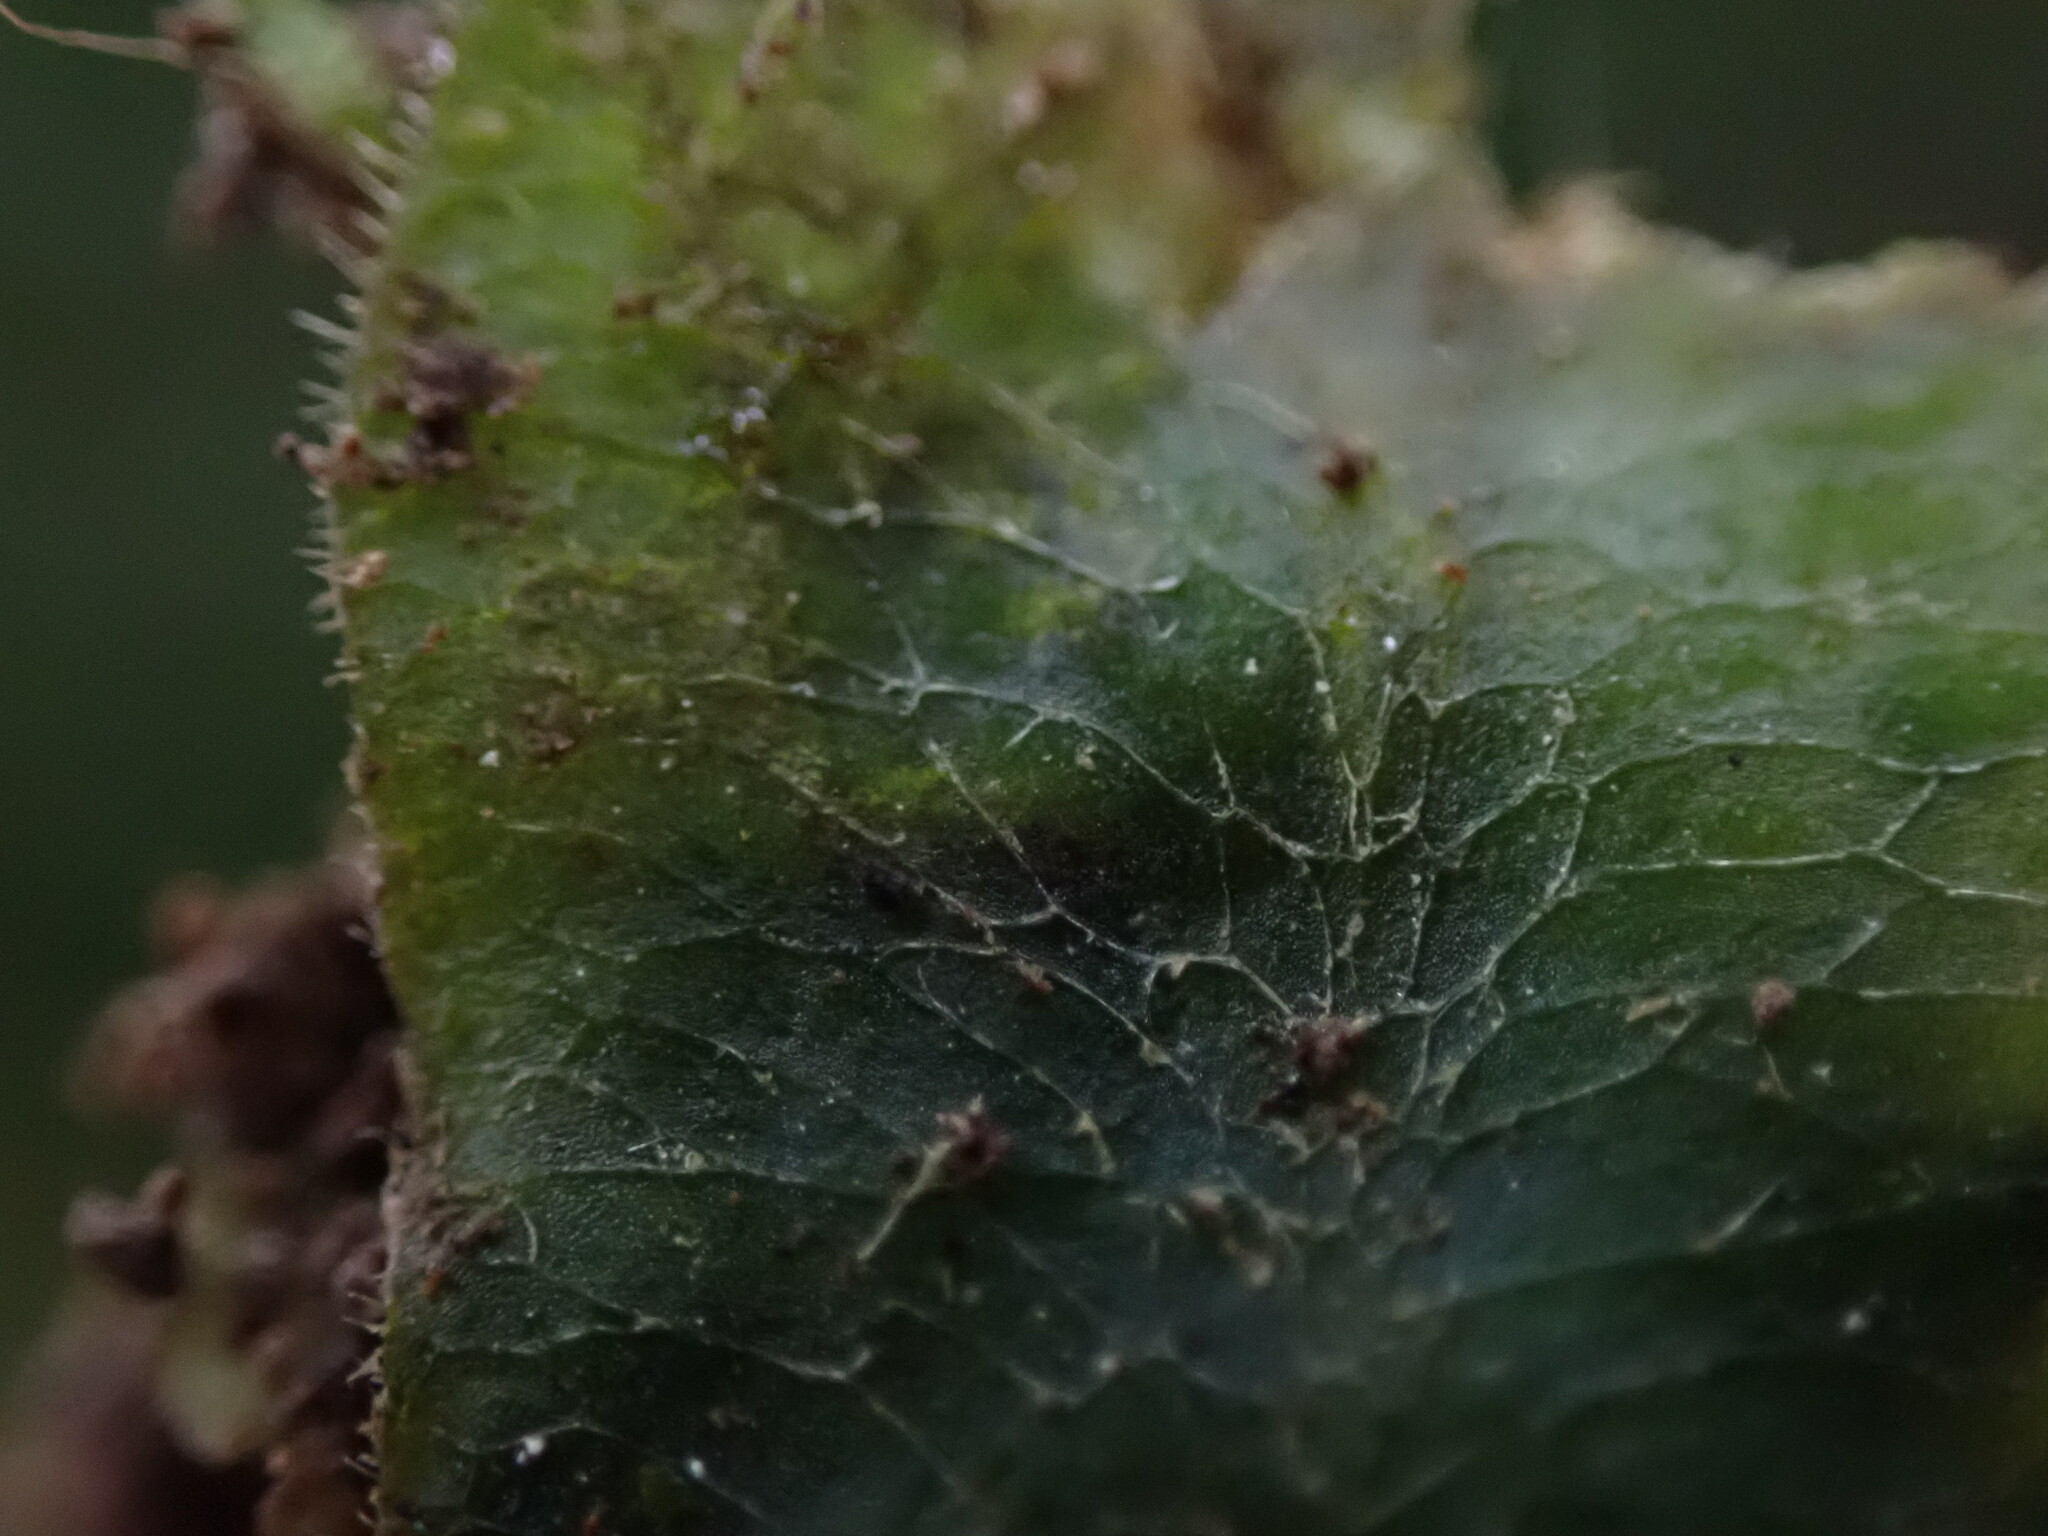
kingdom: Plantae
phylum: Marchantiophyta
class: Marchantiopsida
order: Marchantiales
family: Dumortieraceae
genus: Dumortiera
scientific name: Dumortiera hirsuta
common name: Dumortier's liverwort
